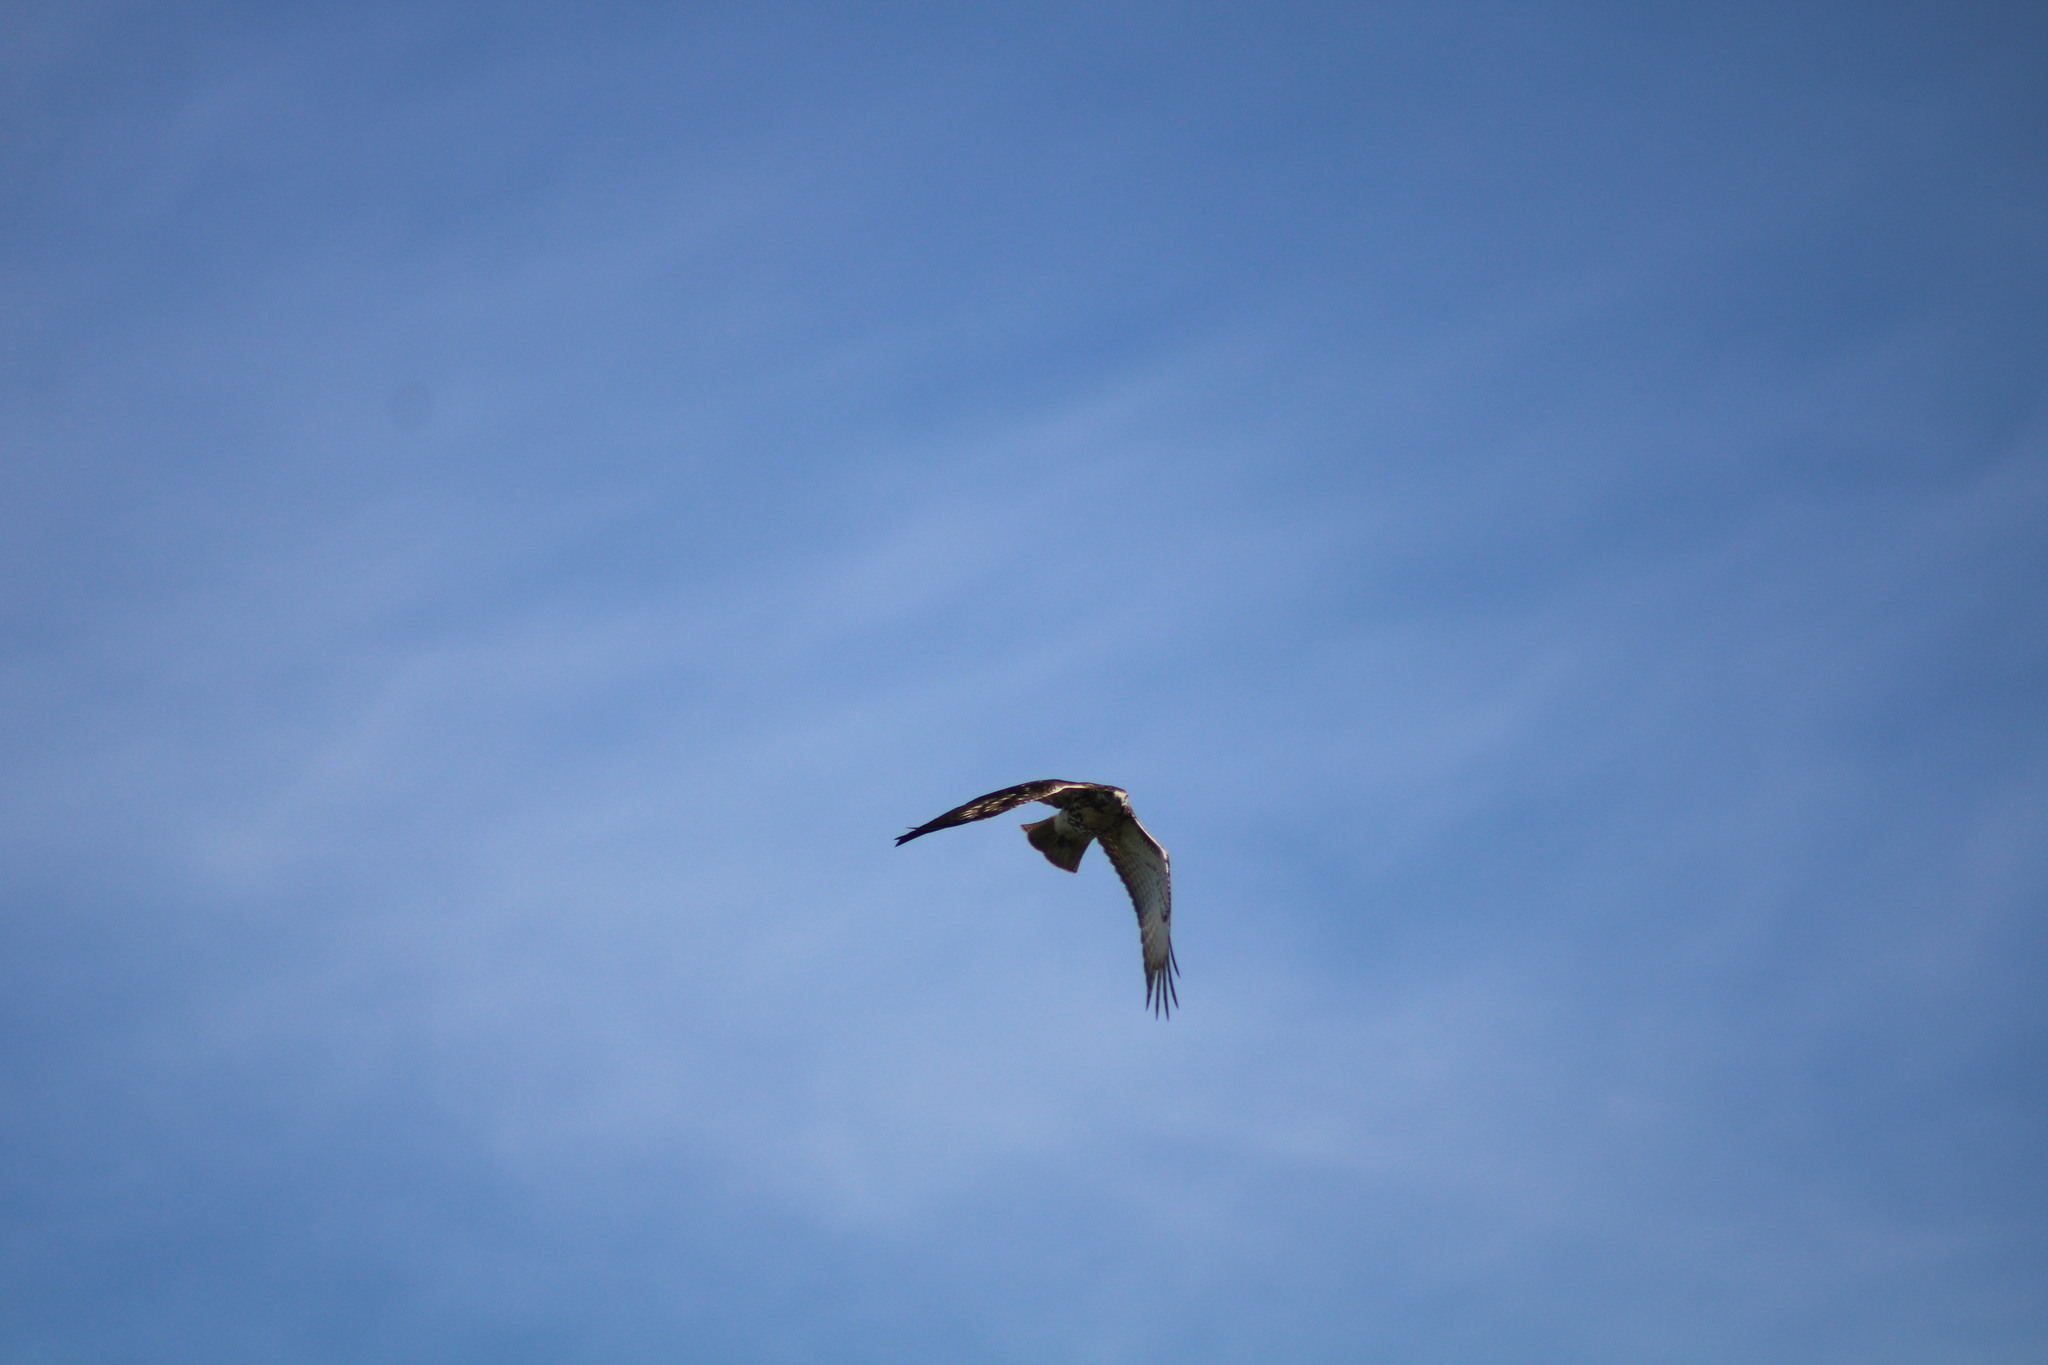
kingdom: Animalia
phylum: Chordata
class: Aves
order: Accipitriformes
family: Accipitridae
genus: Buteo
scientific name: Buteo jamaicensis
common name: Red-tailed hawk
